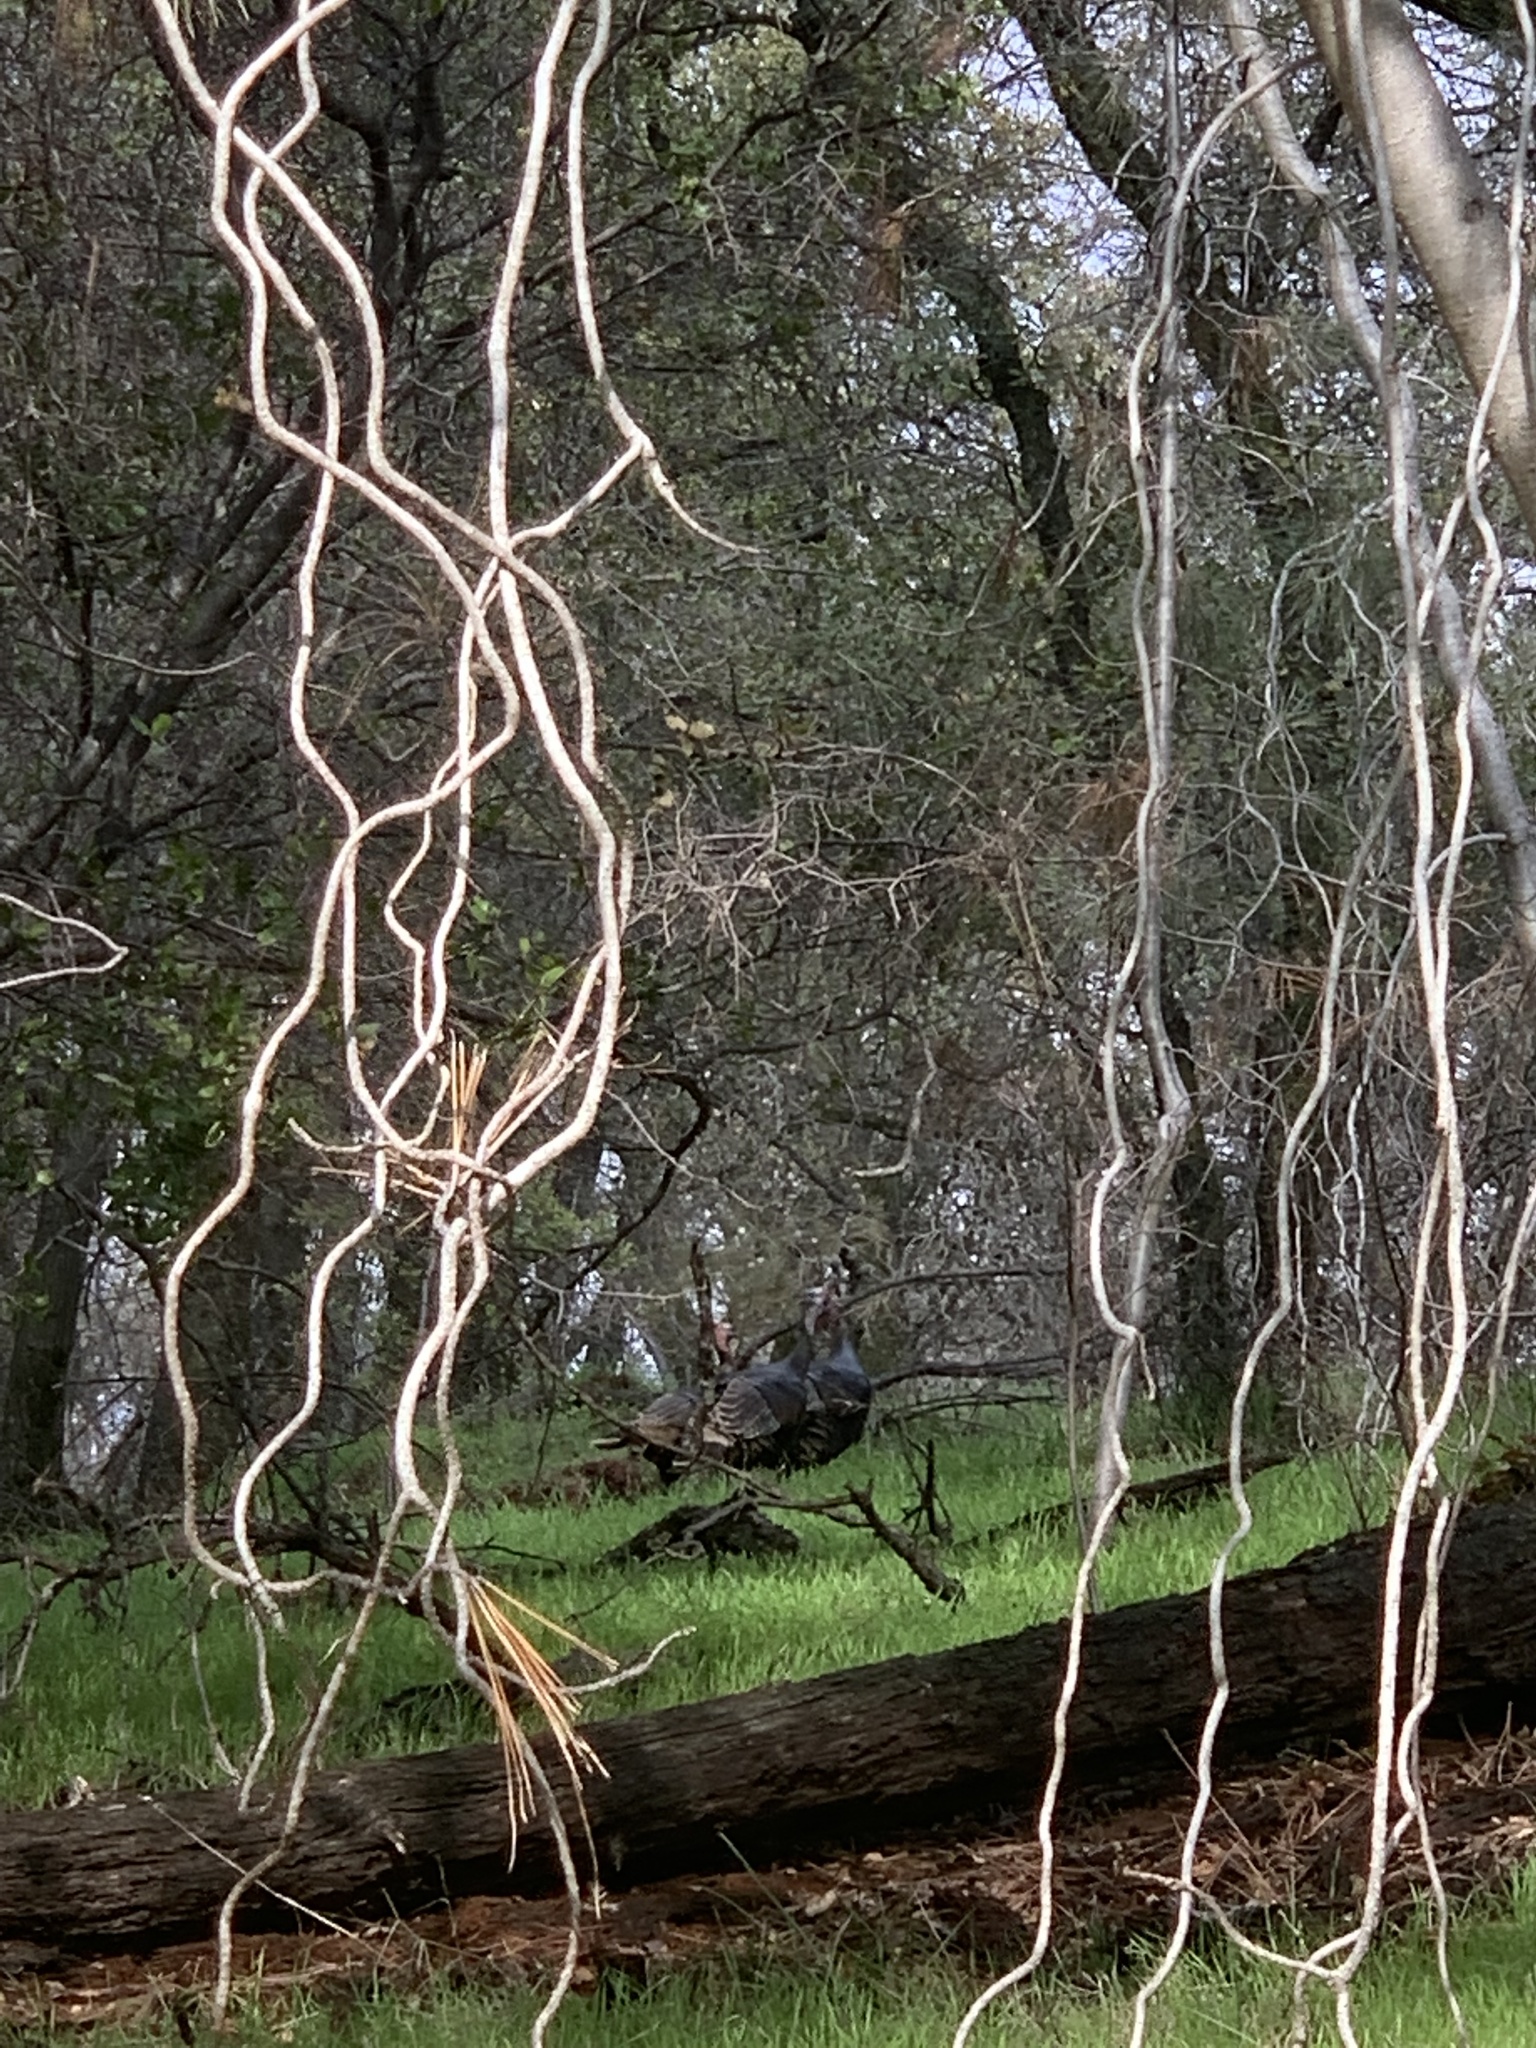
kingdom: Animalia
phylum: Chordata
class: Aves
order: Galliformes
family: Phasianidae
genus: Meleagris
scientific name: Meleagris gallopavo
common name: Wild turkey
